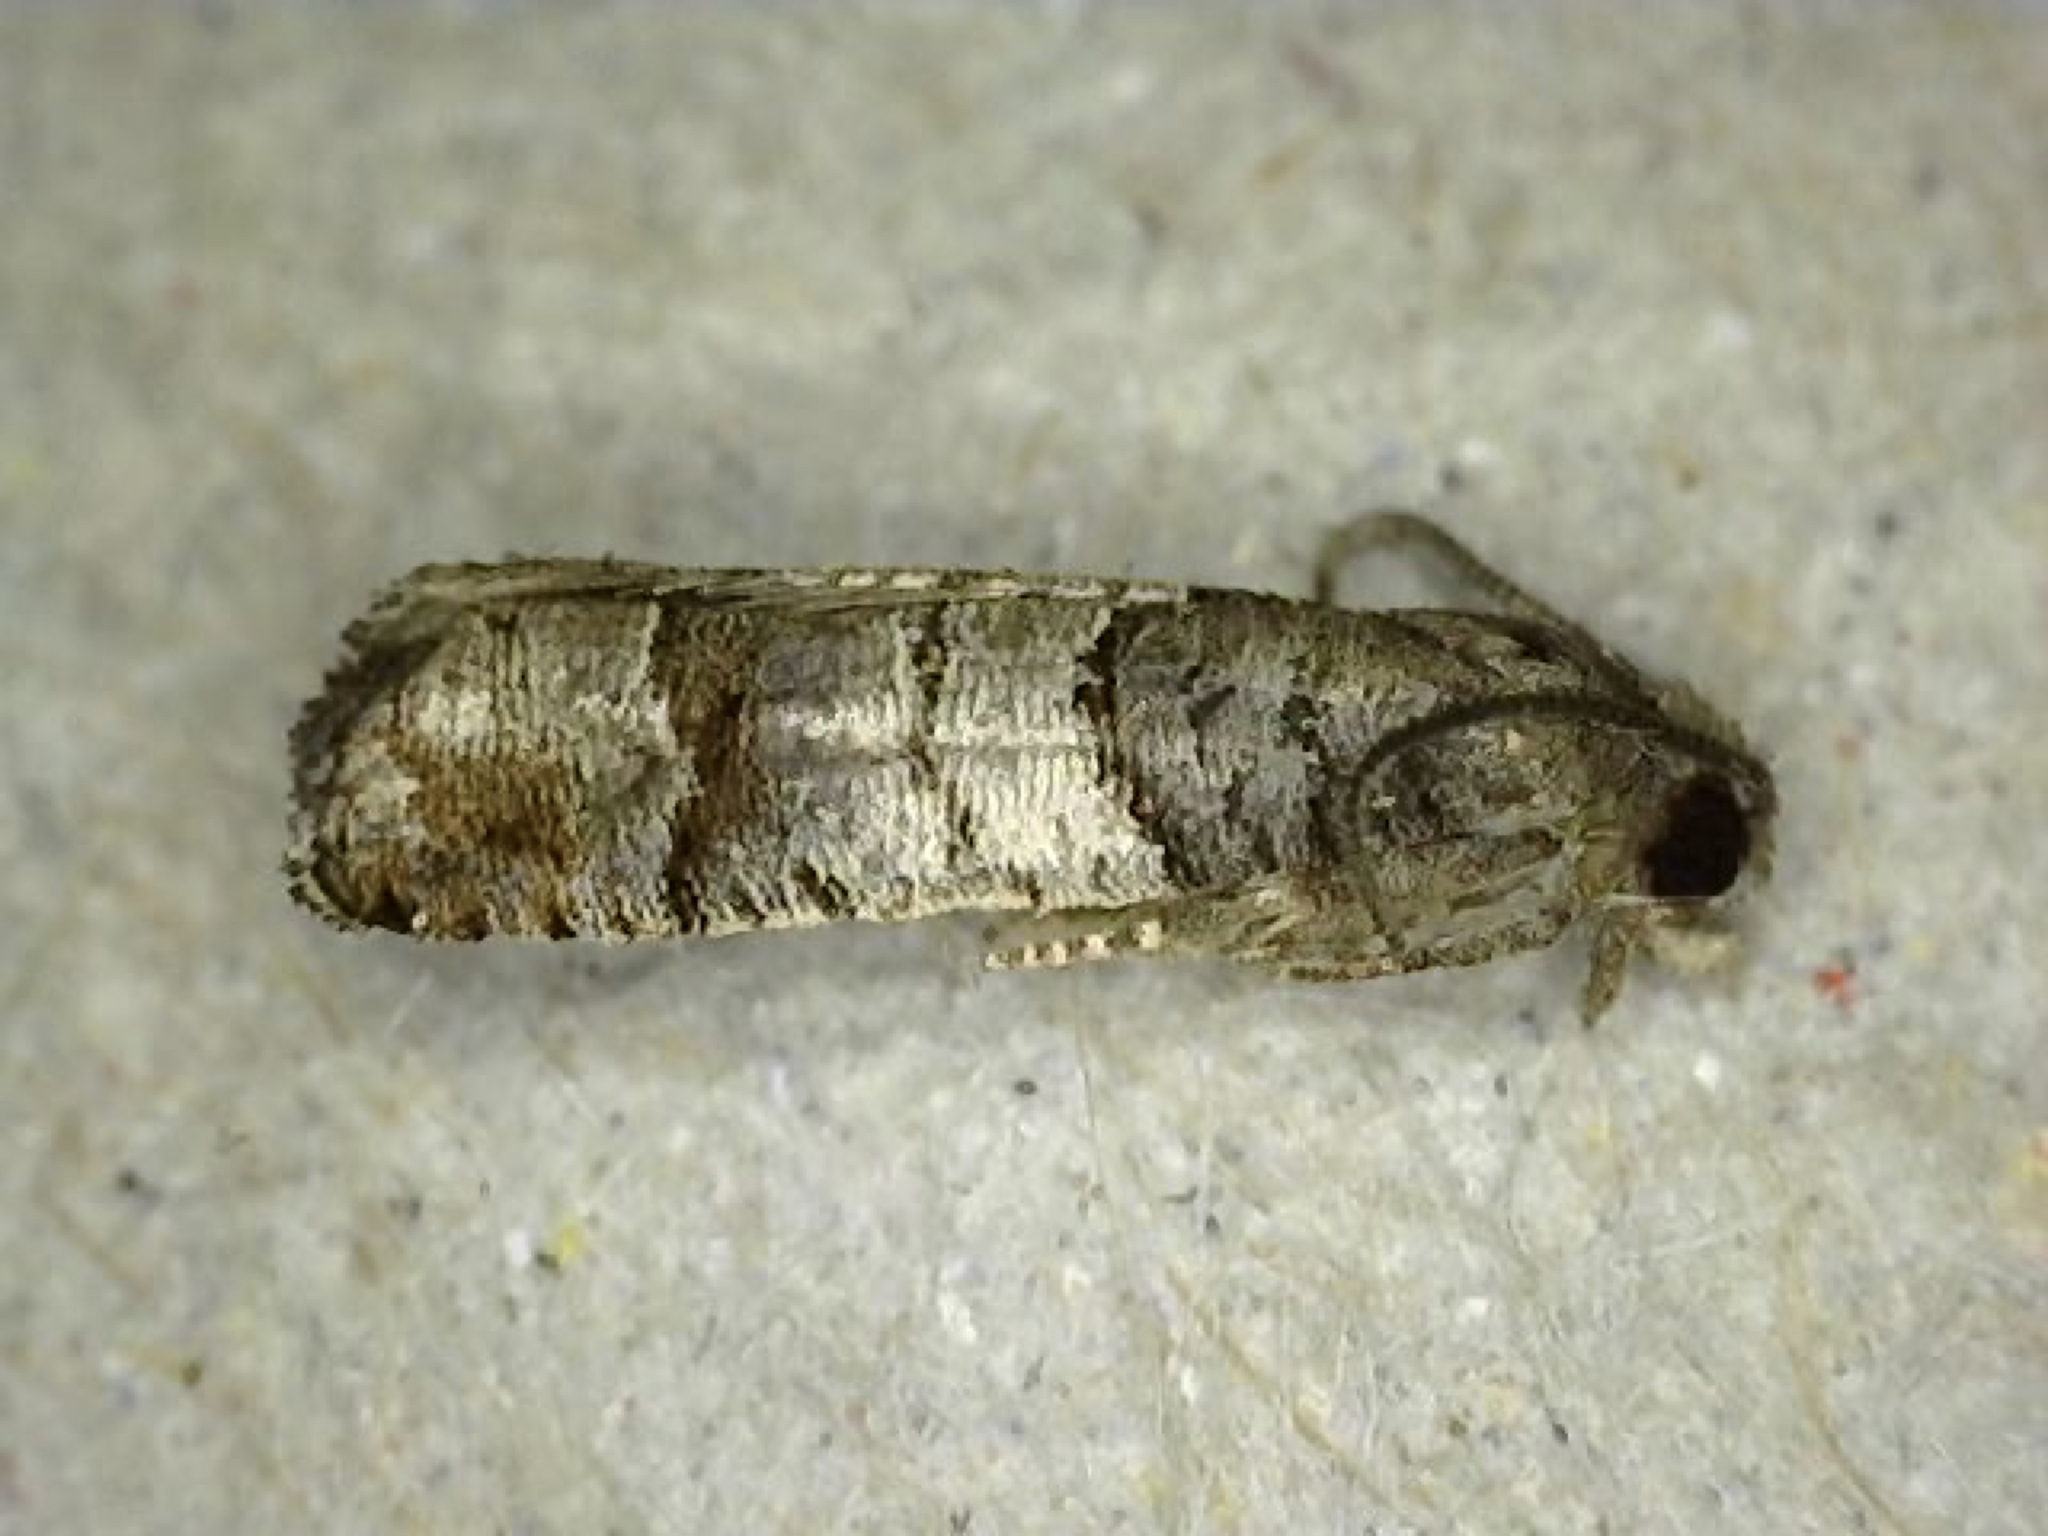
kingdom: Animalia
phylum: Arthropoda
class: Insecta
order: Lepidoptera
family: Tortricidae
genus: Larisa
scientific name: Larisa subsolana
